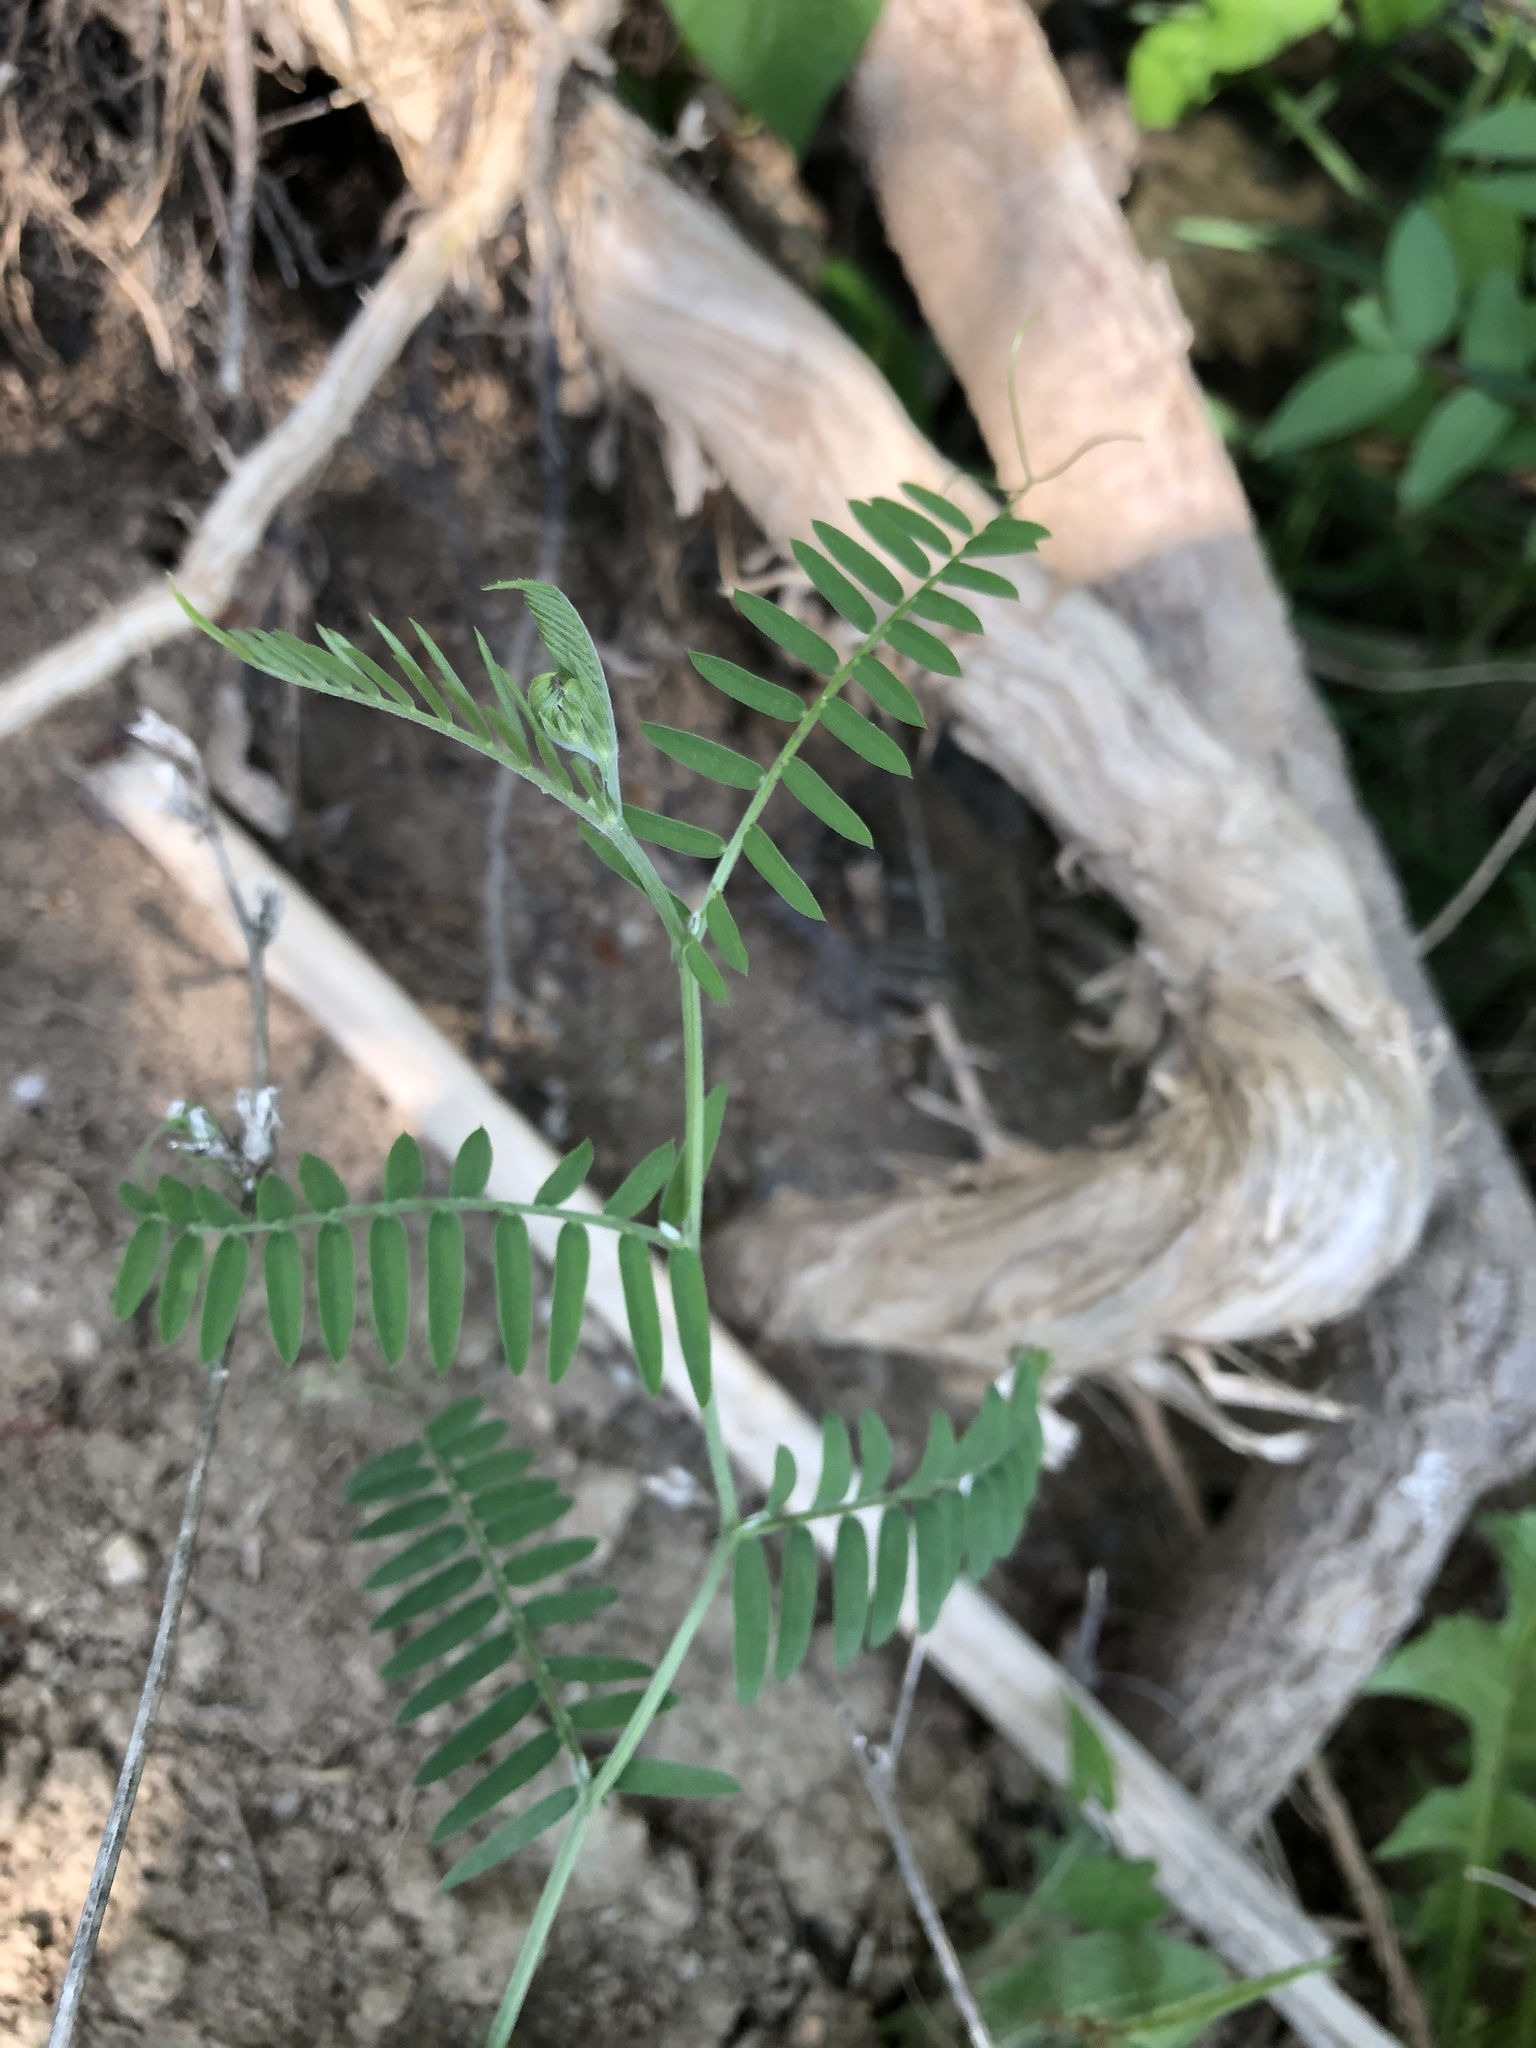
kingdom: Plantae
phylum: Tracheophyta
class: Magnoliopsida
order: Fabales
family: Fabaceae
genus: Vicia
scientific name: Vicia cracca
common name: Bird vetch
